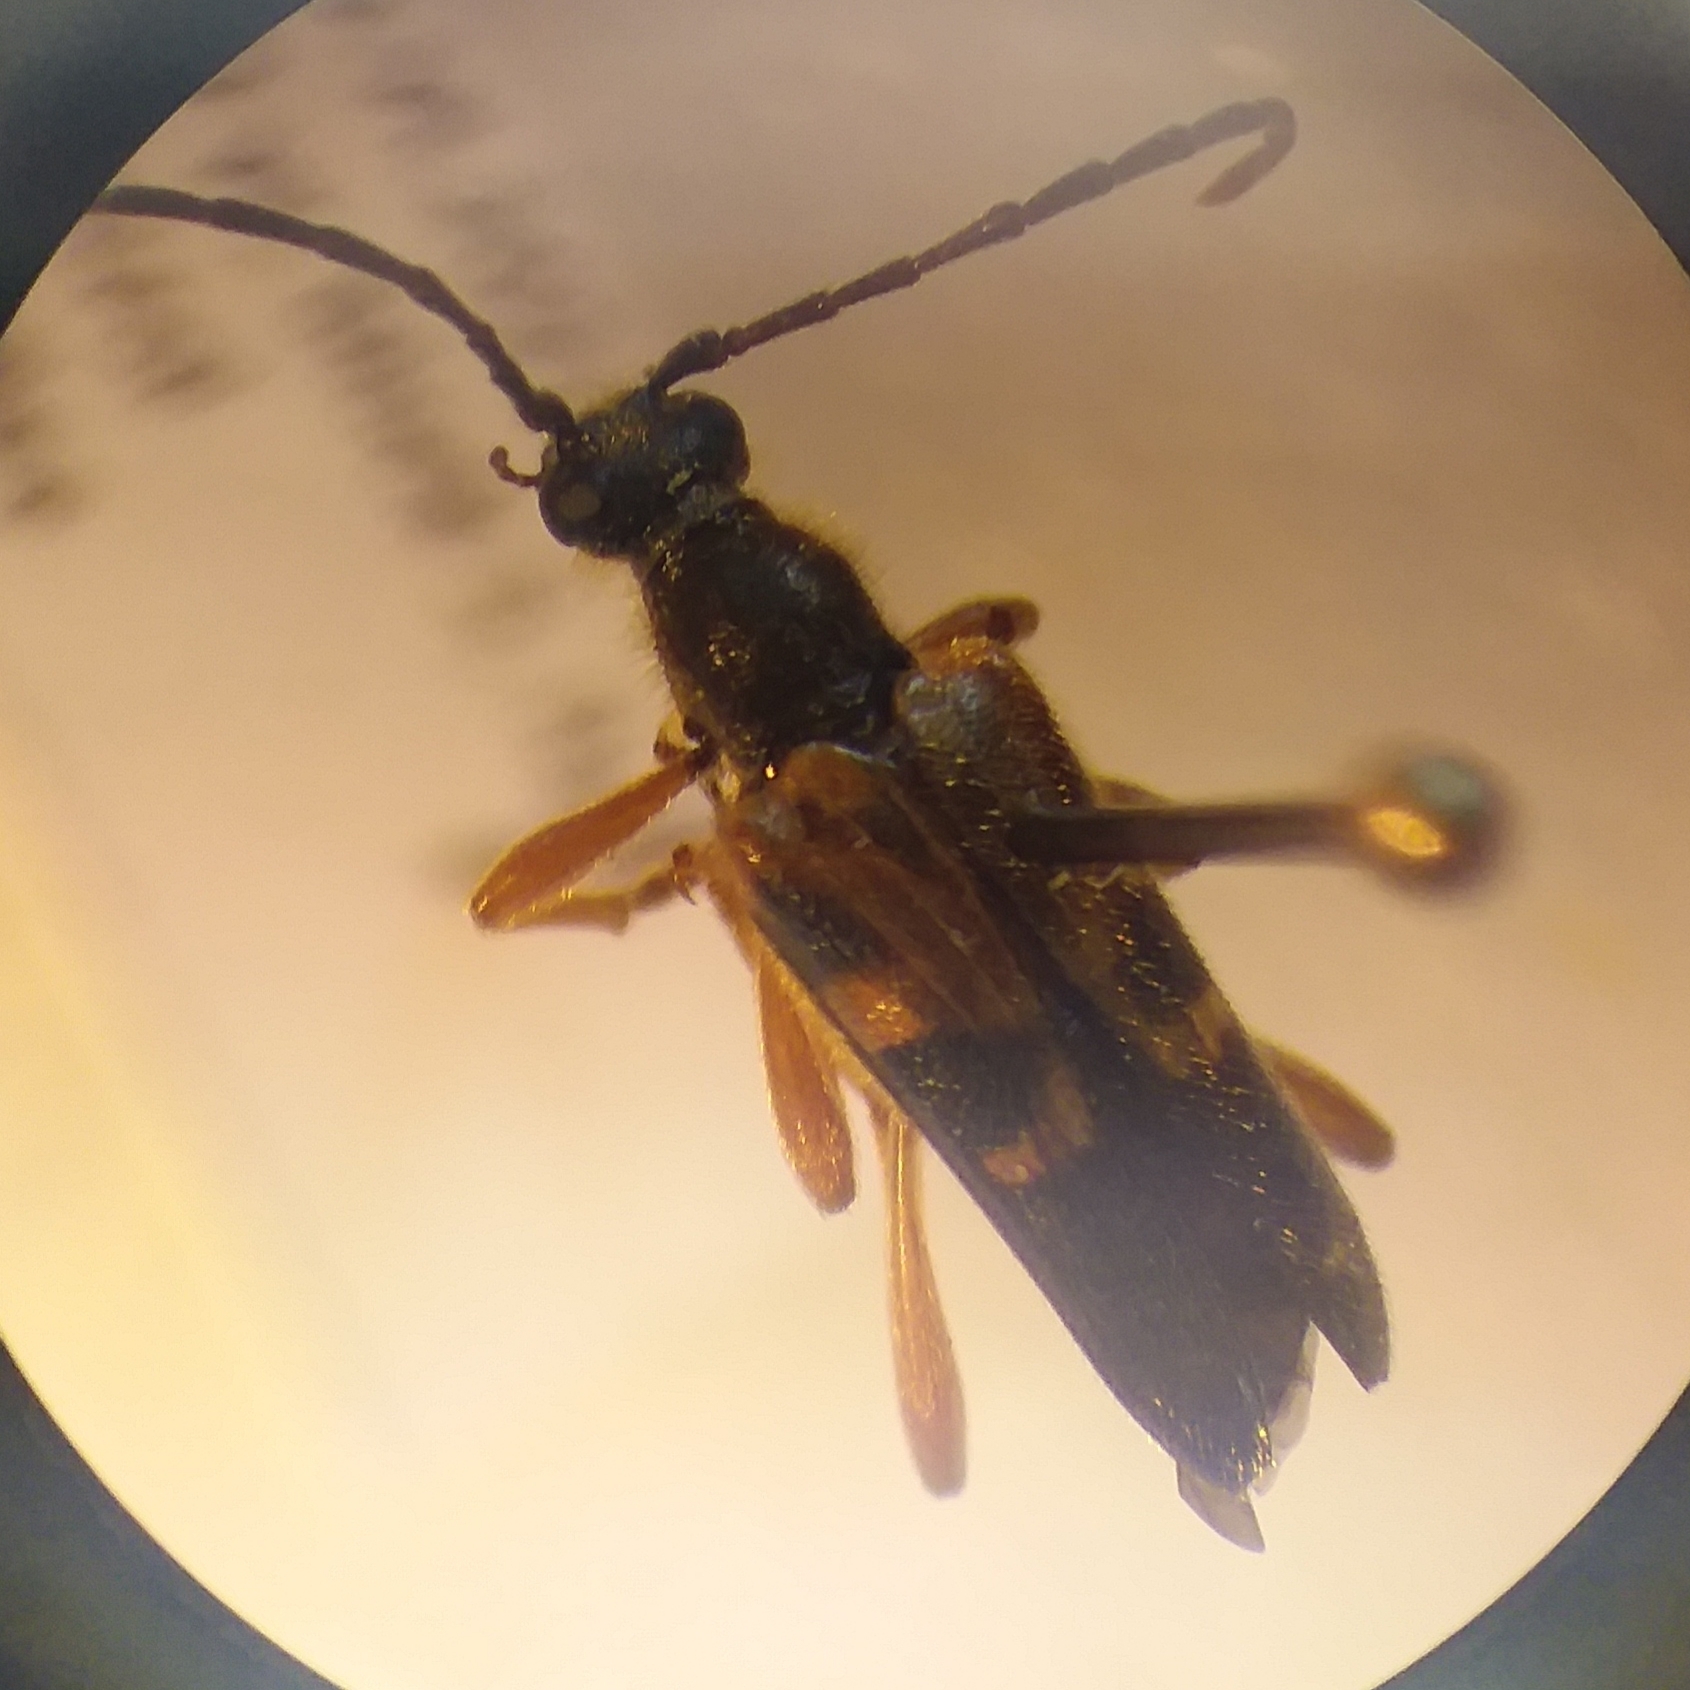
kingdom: Animalia
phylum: Arthropoda
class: Insecta
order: Coleoptera
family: Cerambycidae
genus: Xestoleptura
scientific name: Xestoleptura crassipes
